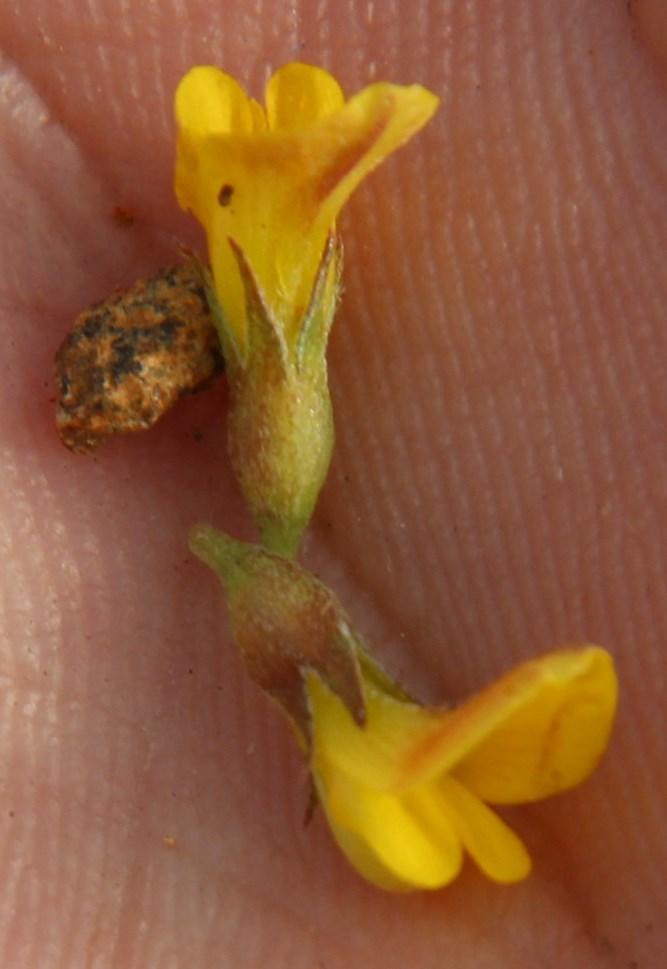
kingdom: Plantae
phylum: Tracheophyta
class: Magnoliopsida
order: Fabales
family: Fabaceae
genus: Lotononis
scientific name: Lotononis laxa
